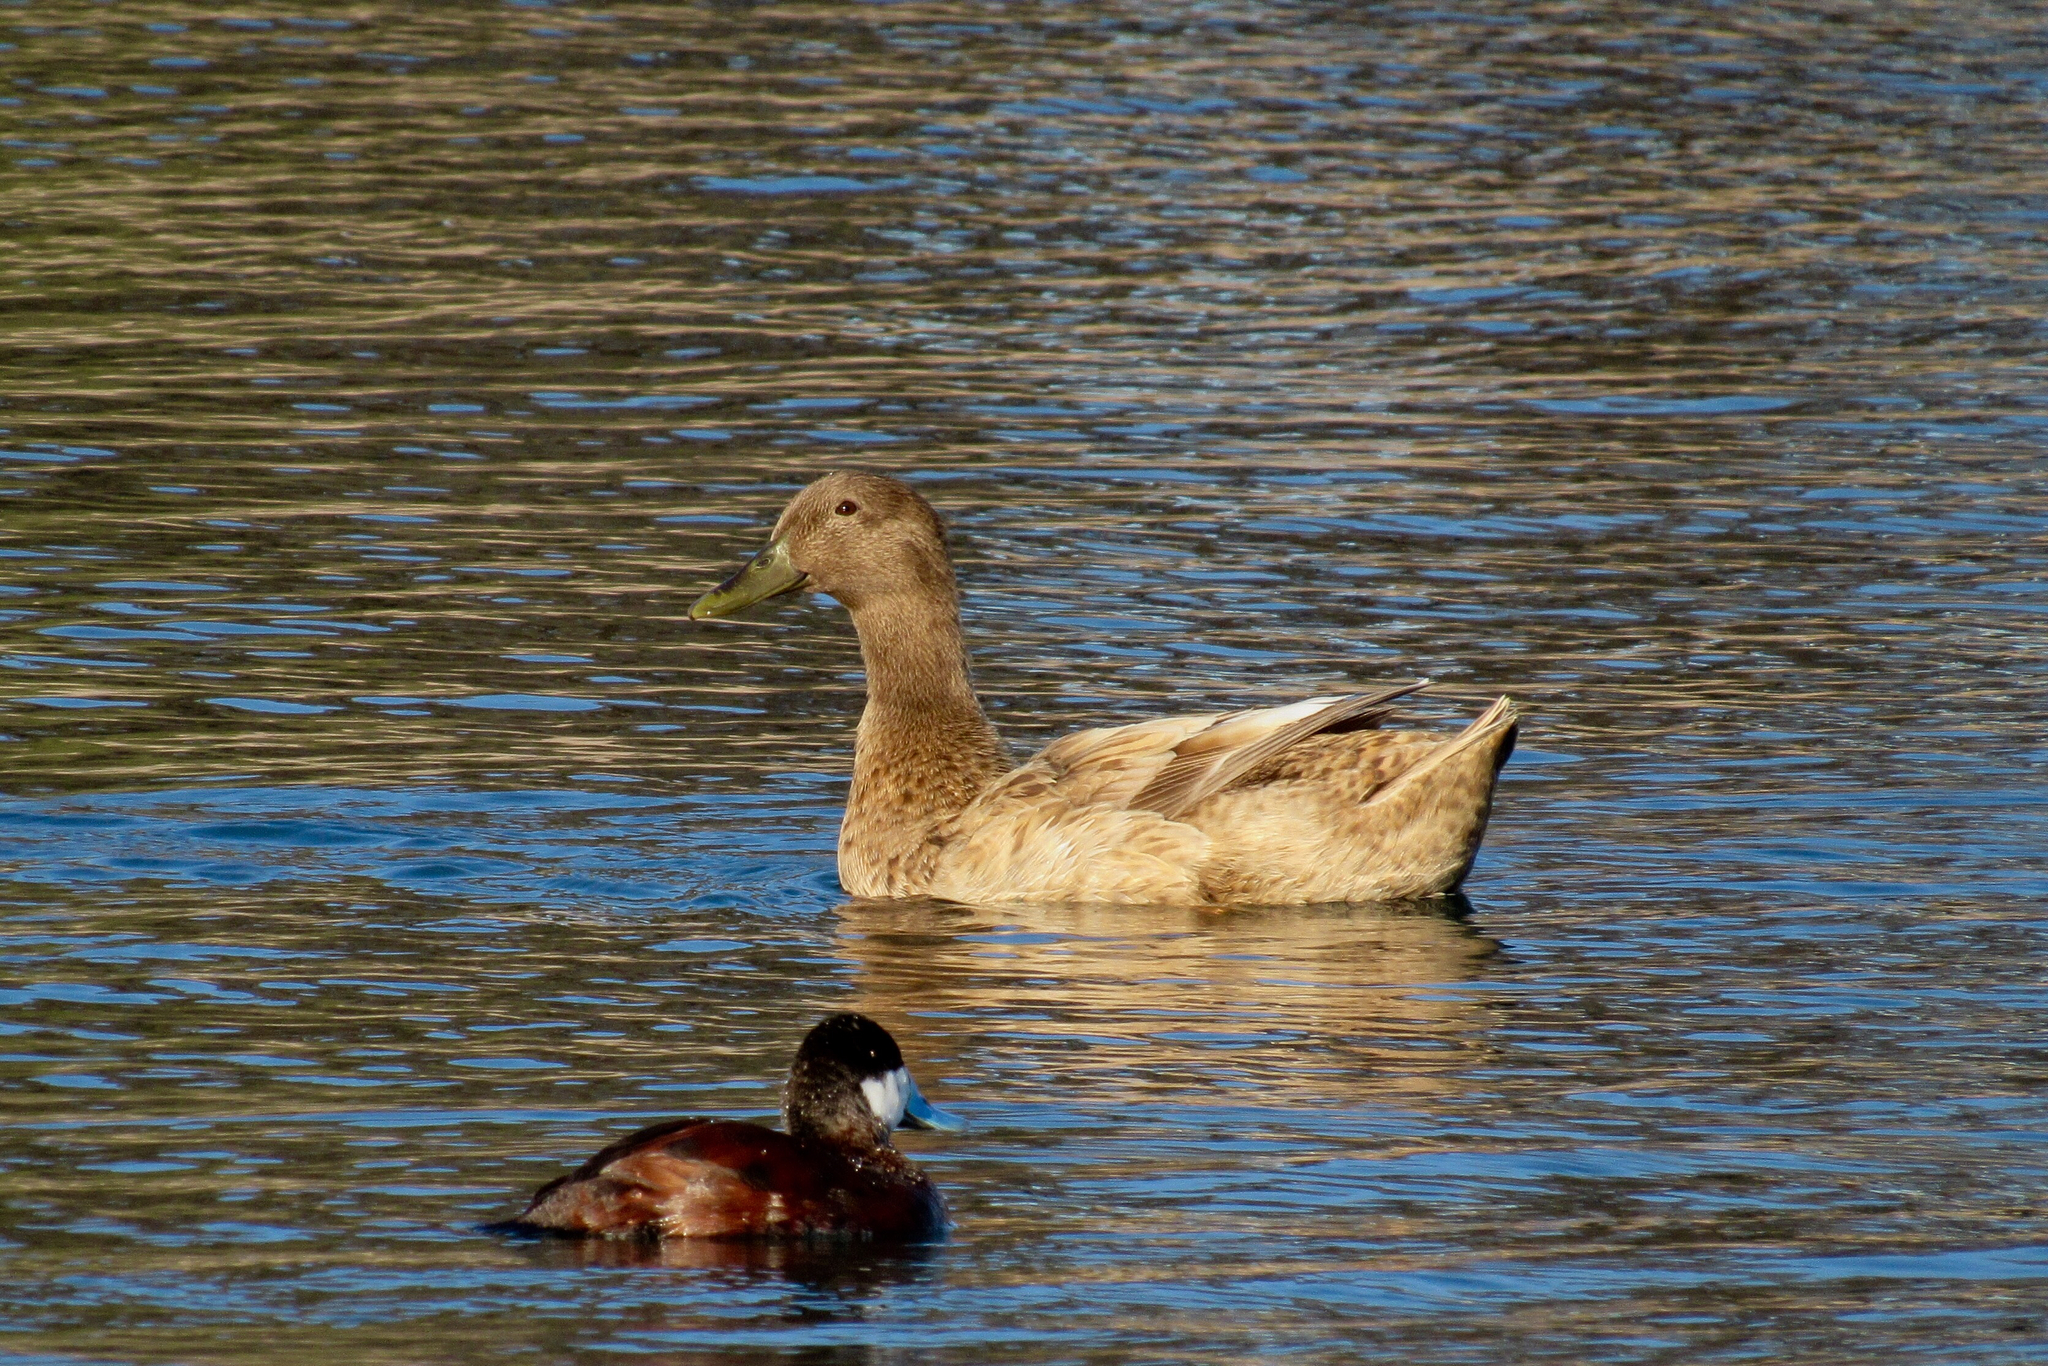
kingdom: Animalia
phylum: Chordata
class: Aves
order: Anseriformes
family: Anatidae
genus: Anas
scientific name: Anas platyrhynchos
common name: Mallard
